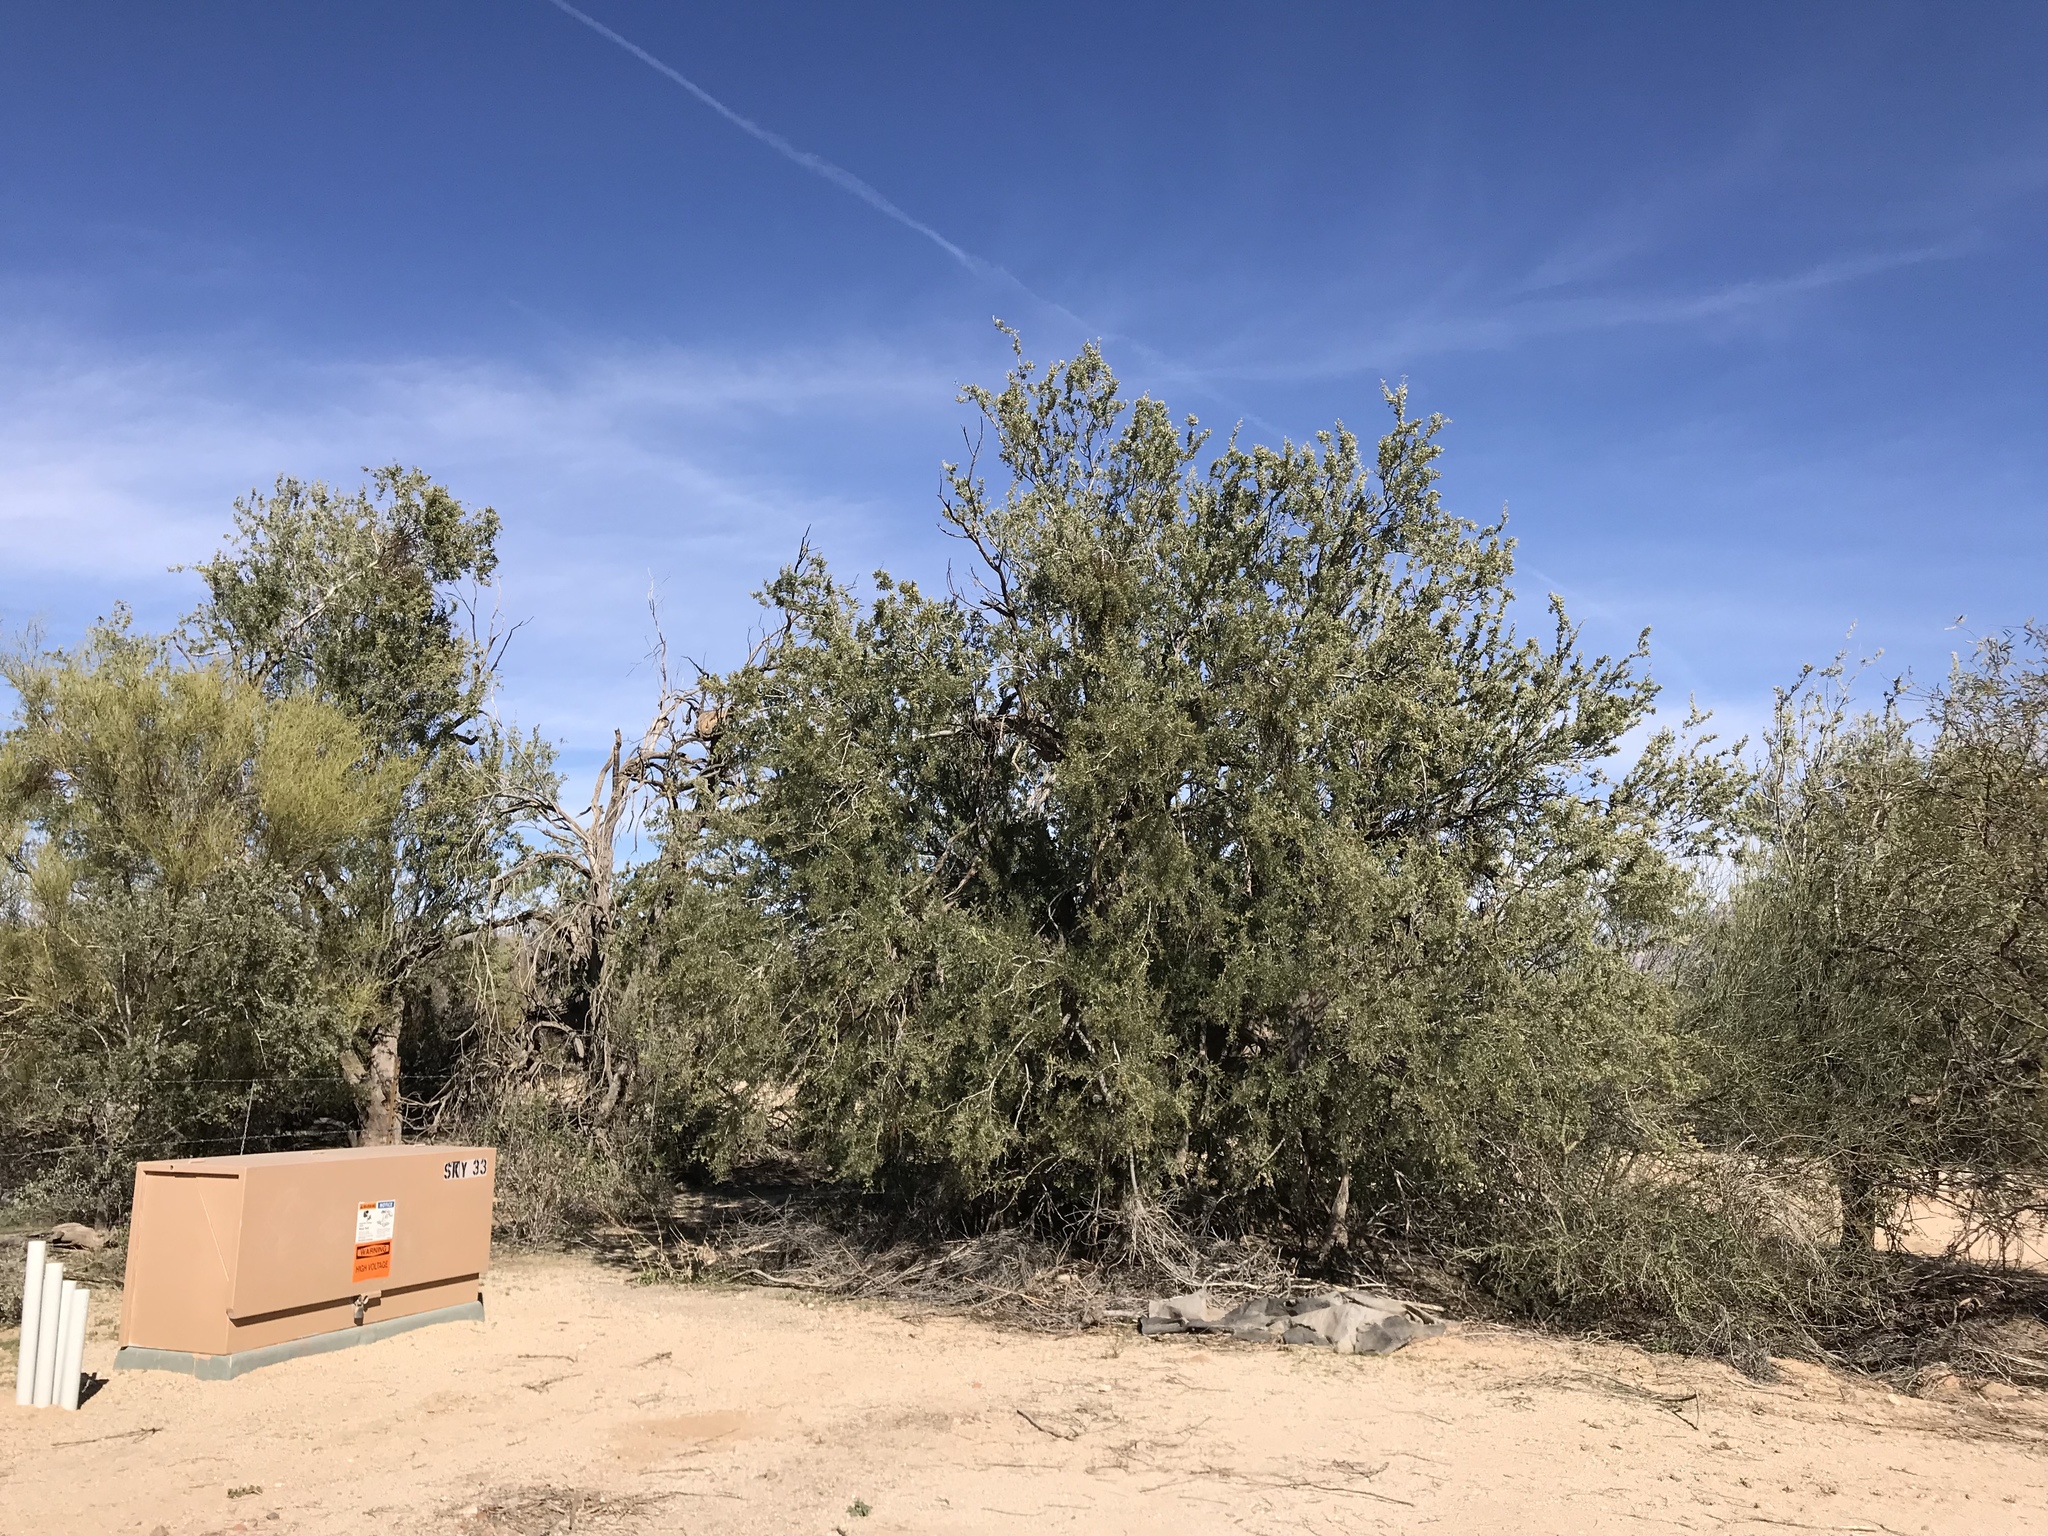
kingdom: Plantae
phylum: Tracheophyta
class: Magnoliopsida
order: Fabales
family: Fabaceae
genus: Olneya
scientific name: Olneya tesota
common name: Desert ironwood
